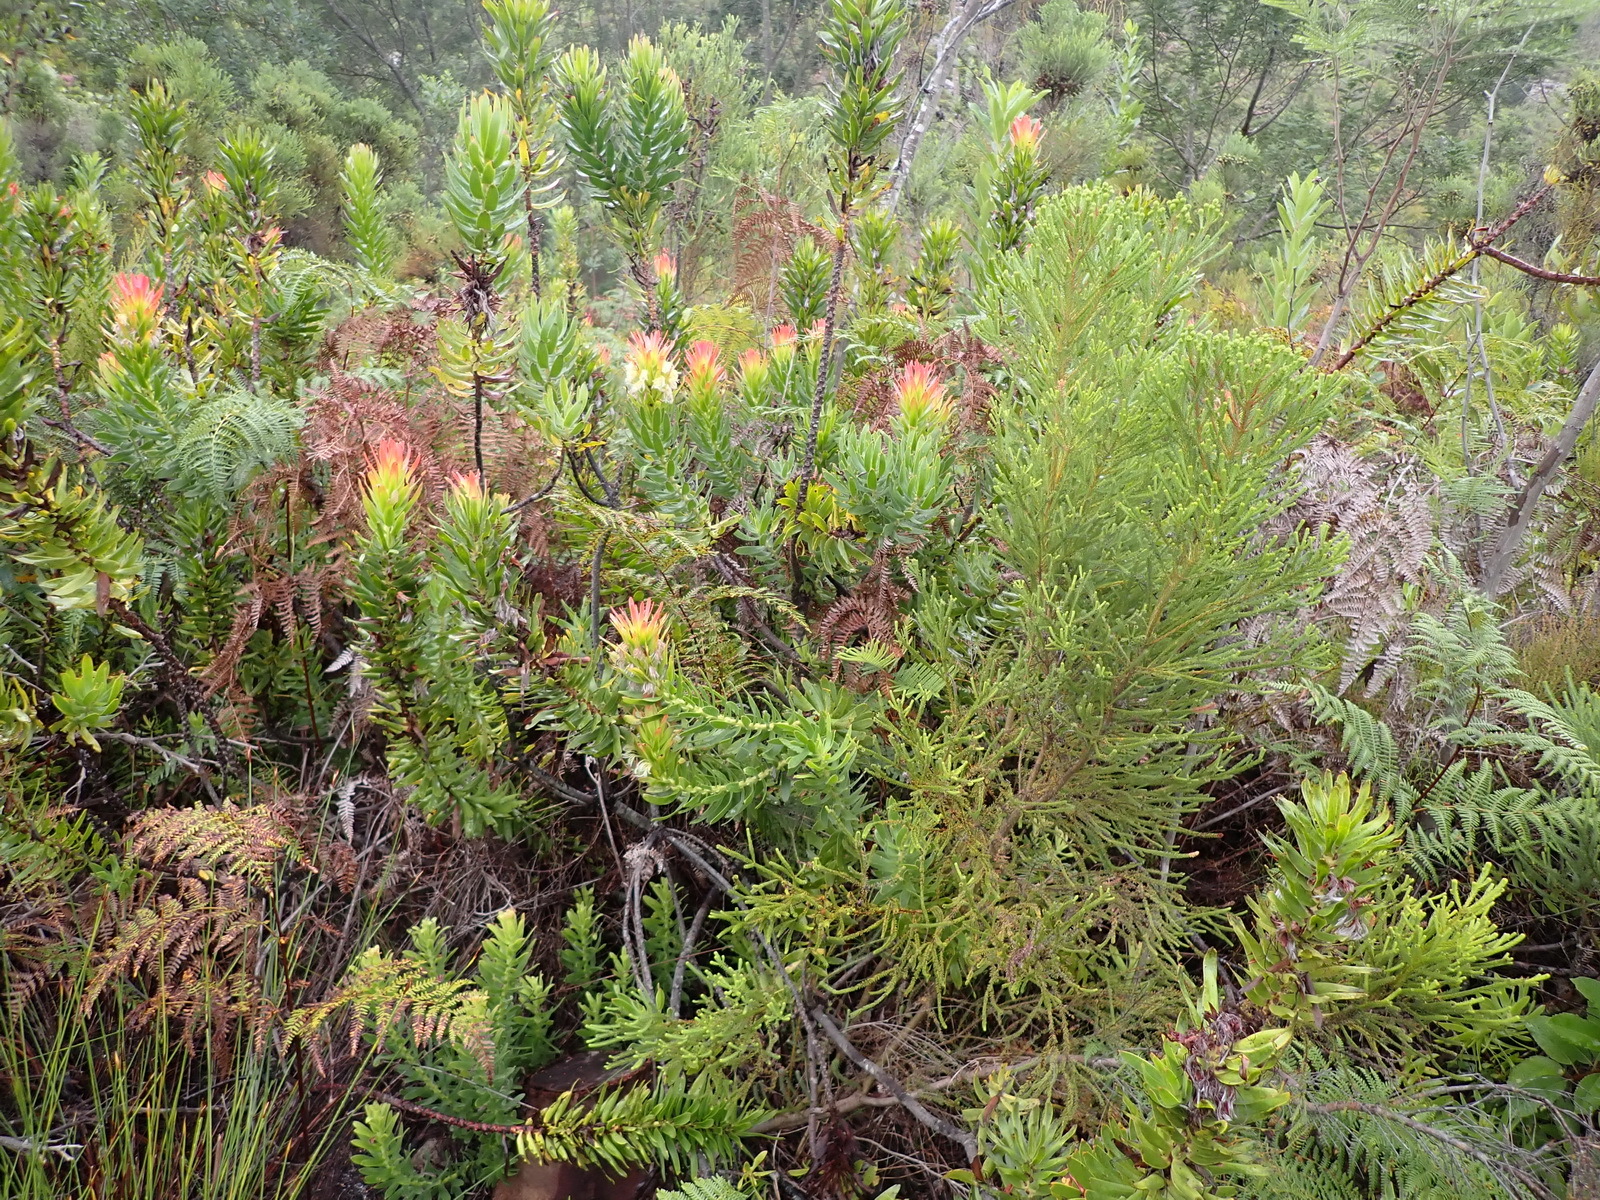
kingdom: Plantae
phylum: Tracheophyta
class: Magnoliopsida
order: Proteales
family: Proteaceae
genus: Mimetes
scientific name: Mimetes cucullatus
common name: Common pagoda
